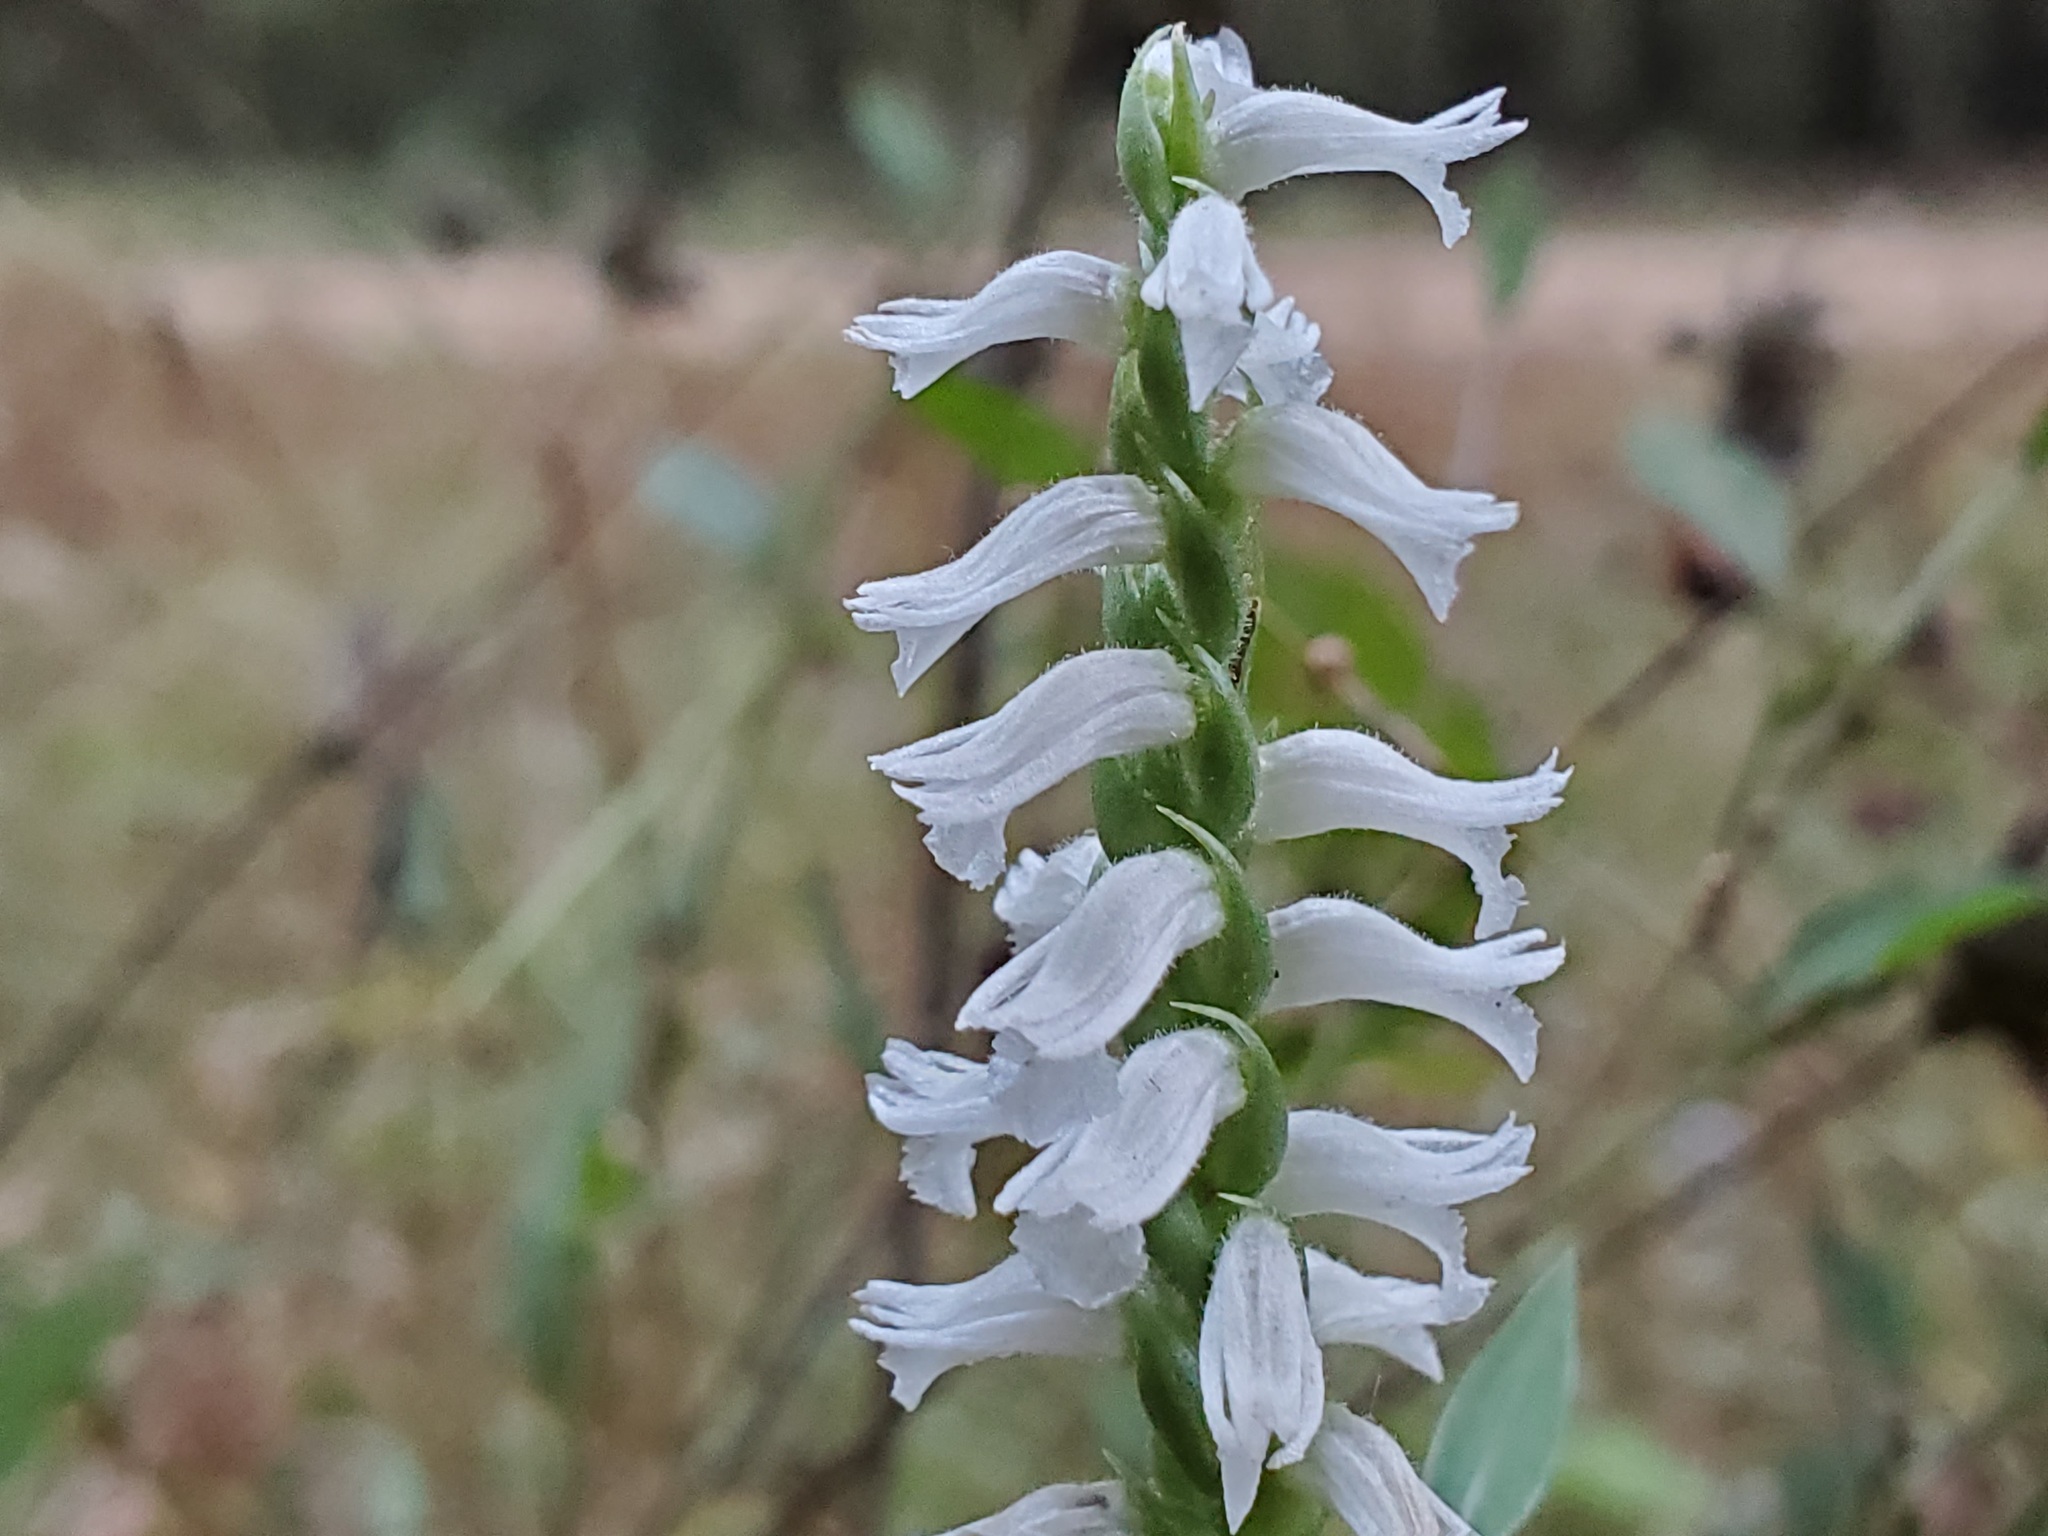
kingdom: Plantae
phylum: Tracheophyta
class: Liliopsida
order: Asparagales
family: Orchidaceae
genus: Spiranthes
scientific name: Spiranthes cernua
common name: Dropping ladies'-tresses
